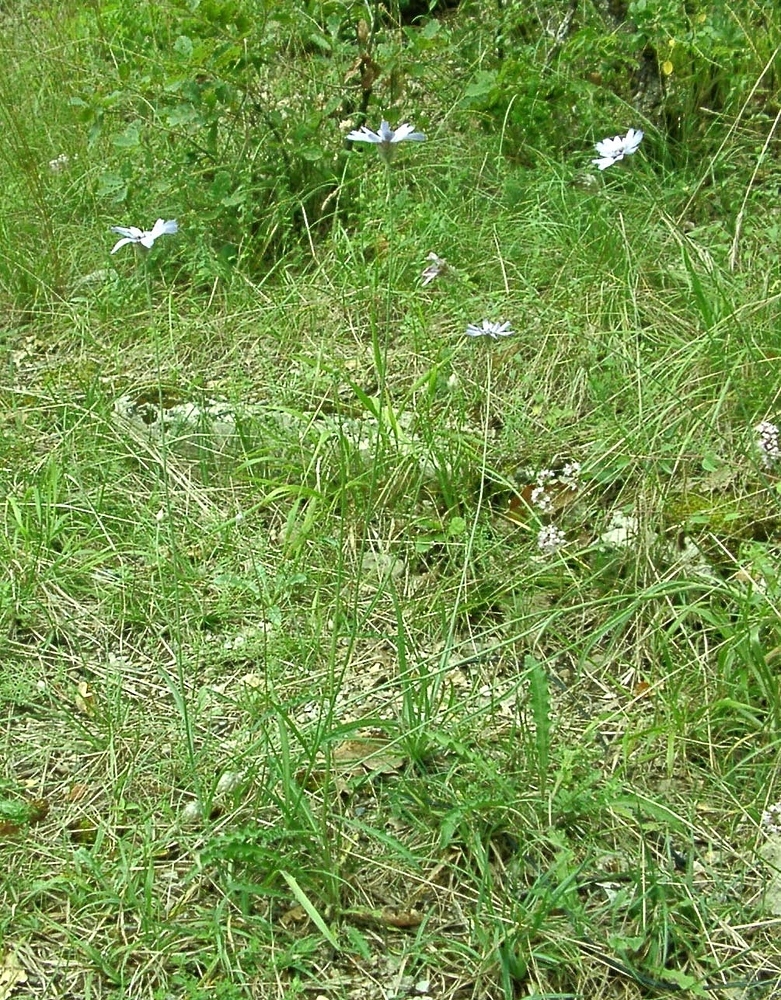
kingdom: Plantae
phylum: Tracheophyta
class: Magnoliopsida
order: Asterales
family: Asteraceae
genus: Catananche
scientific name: Catananche caerulea
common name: Blue cupidone
